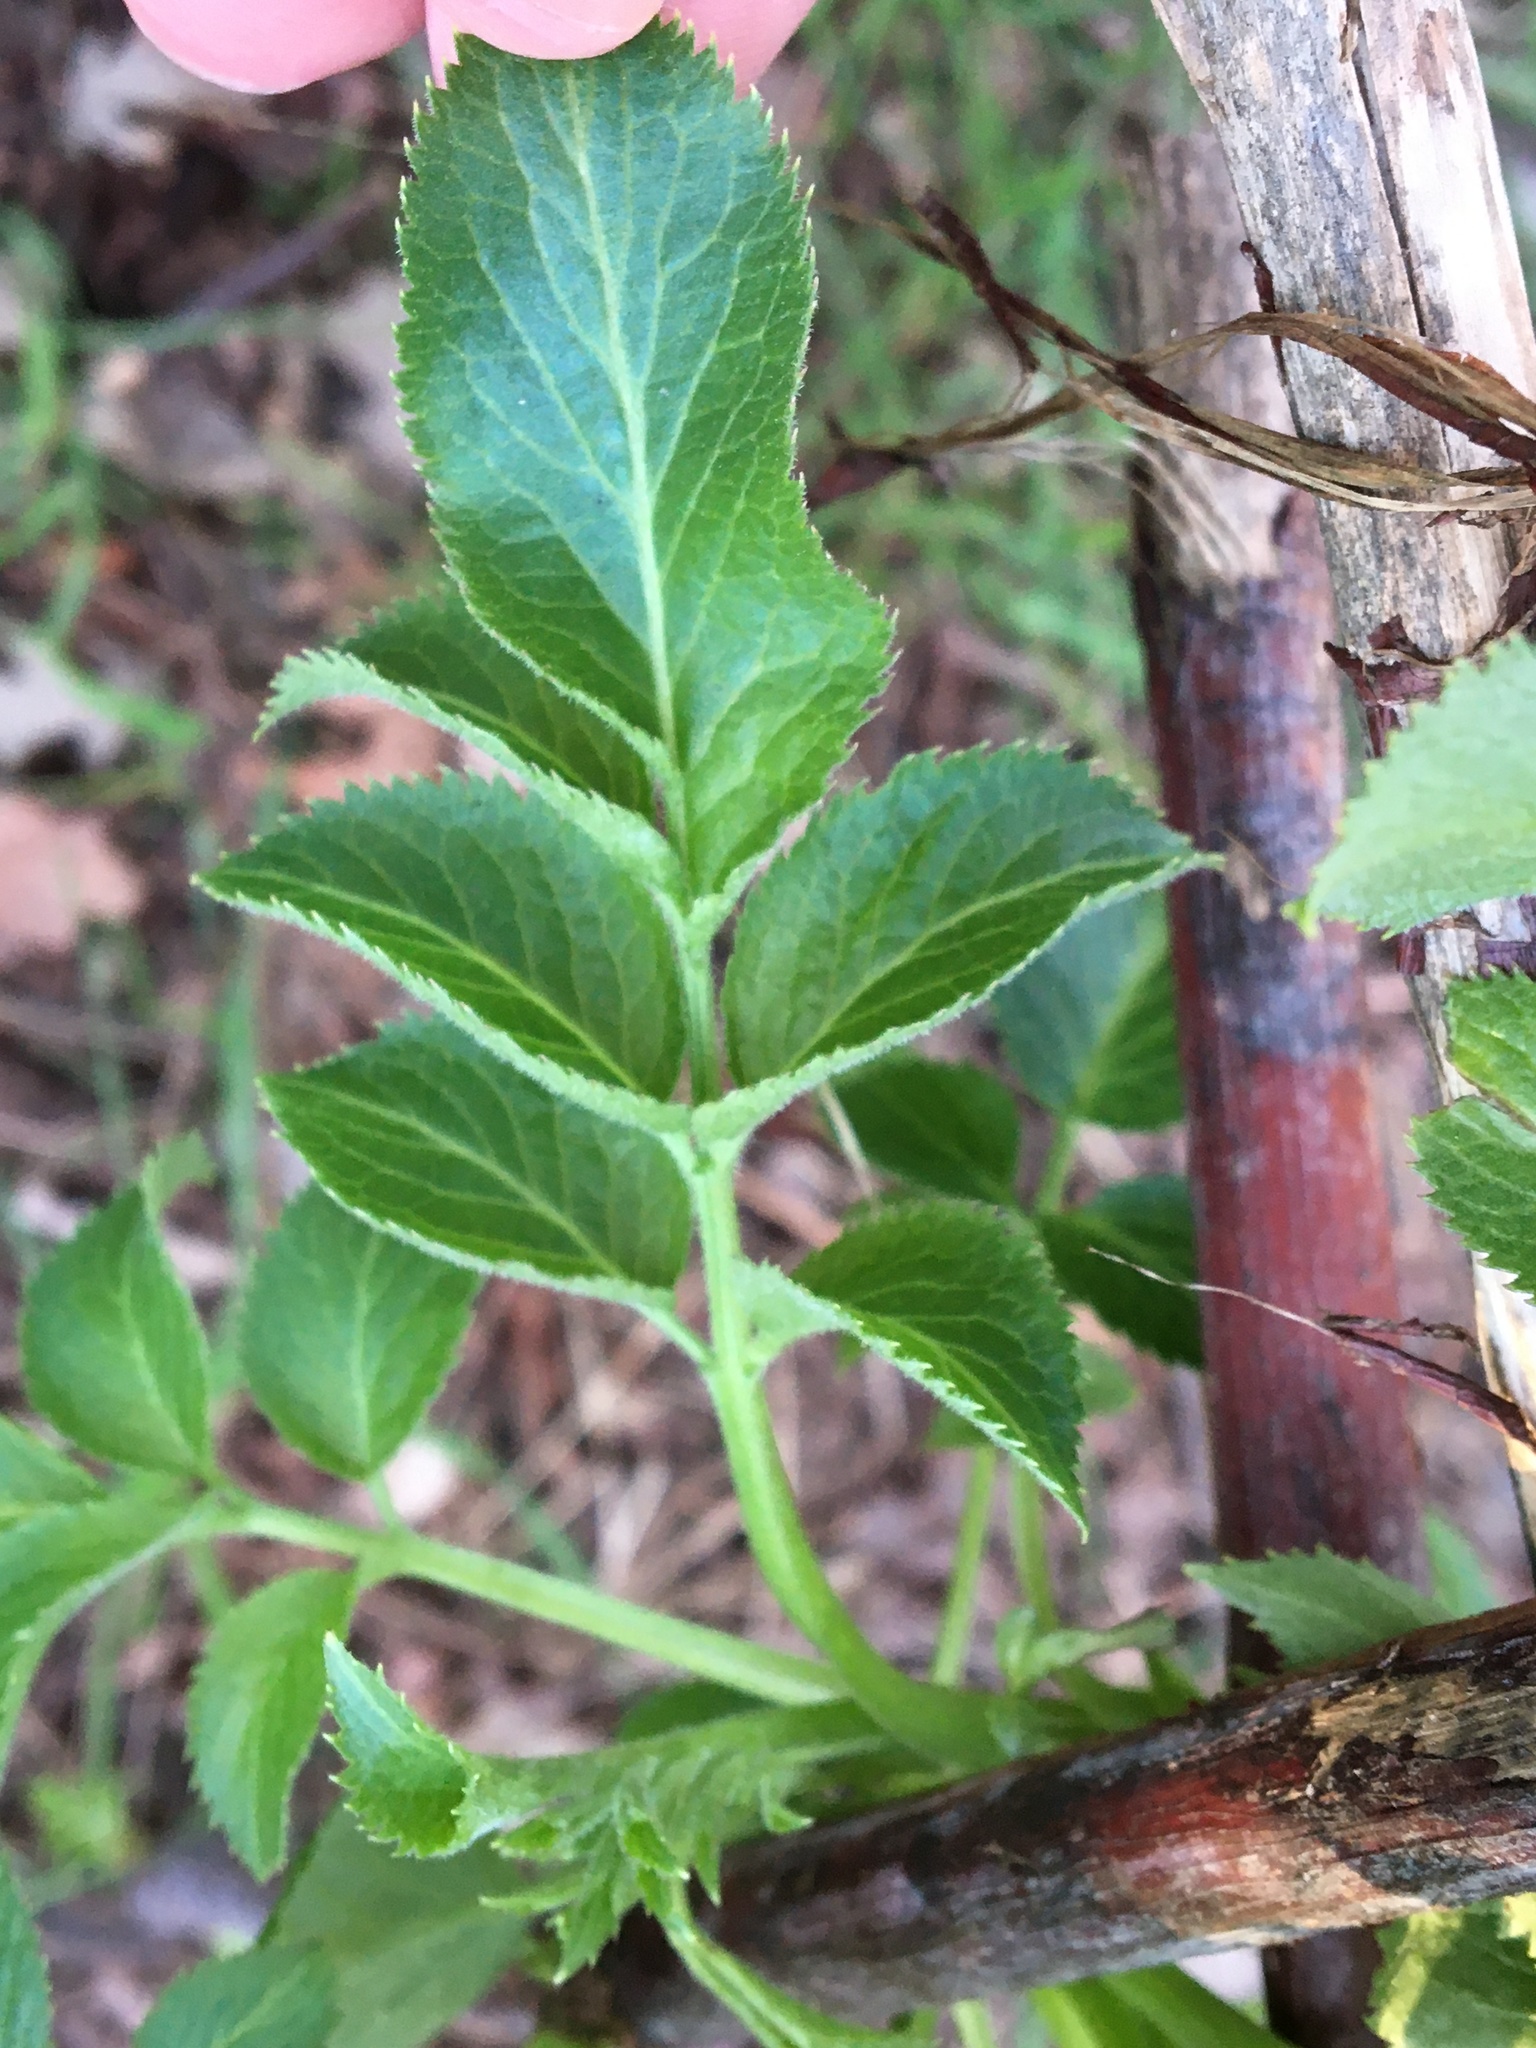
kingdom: Plantae
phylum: Tracheophyta
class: Magnoliopsida
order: Dipsacales
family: Viburnaceae
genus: Sambucus
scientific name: Sambucus cerulea
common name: Blue elder
